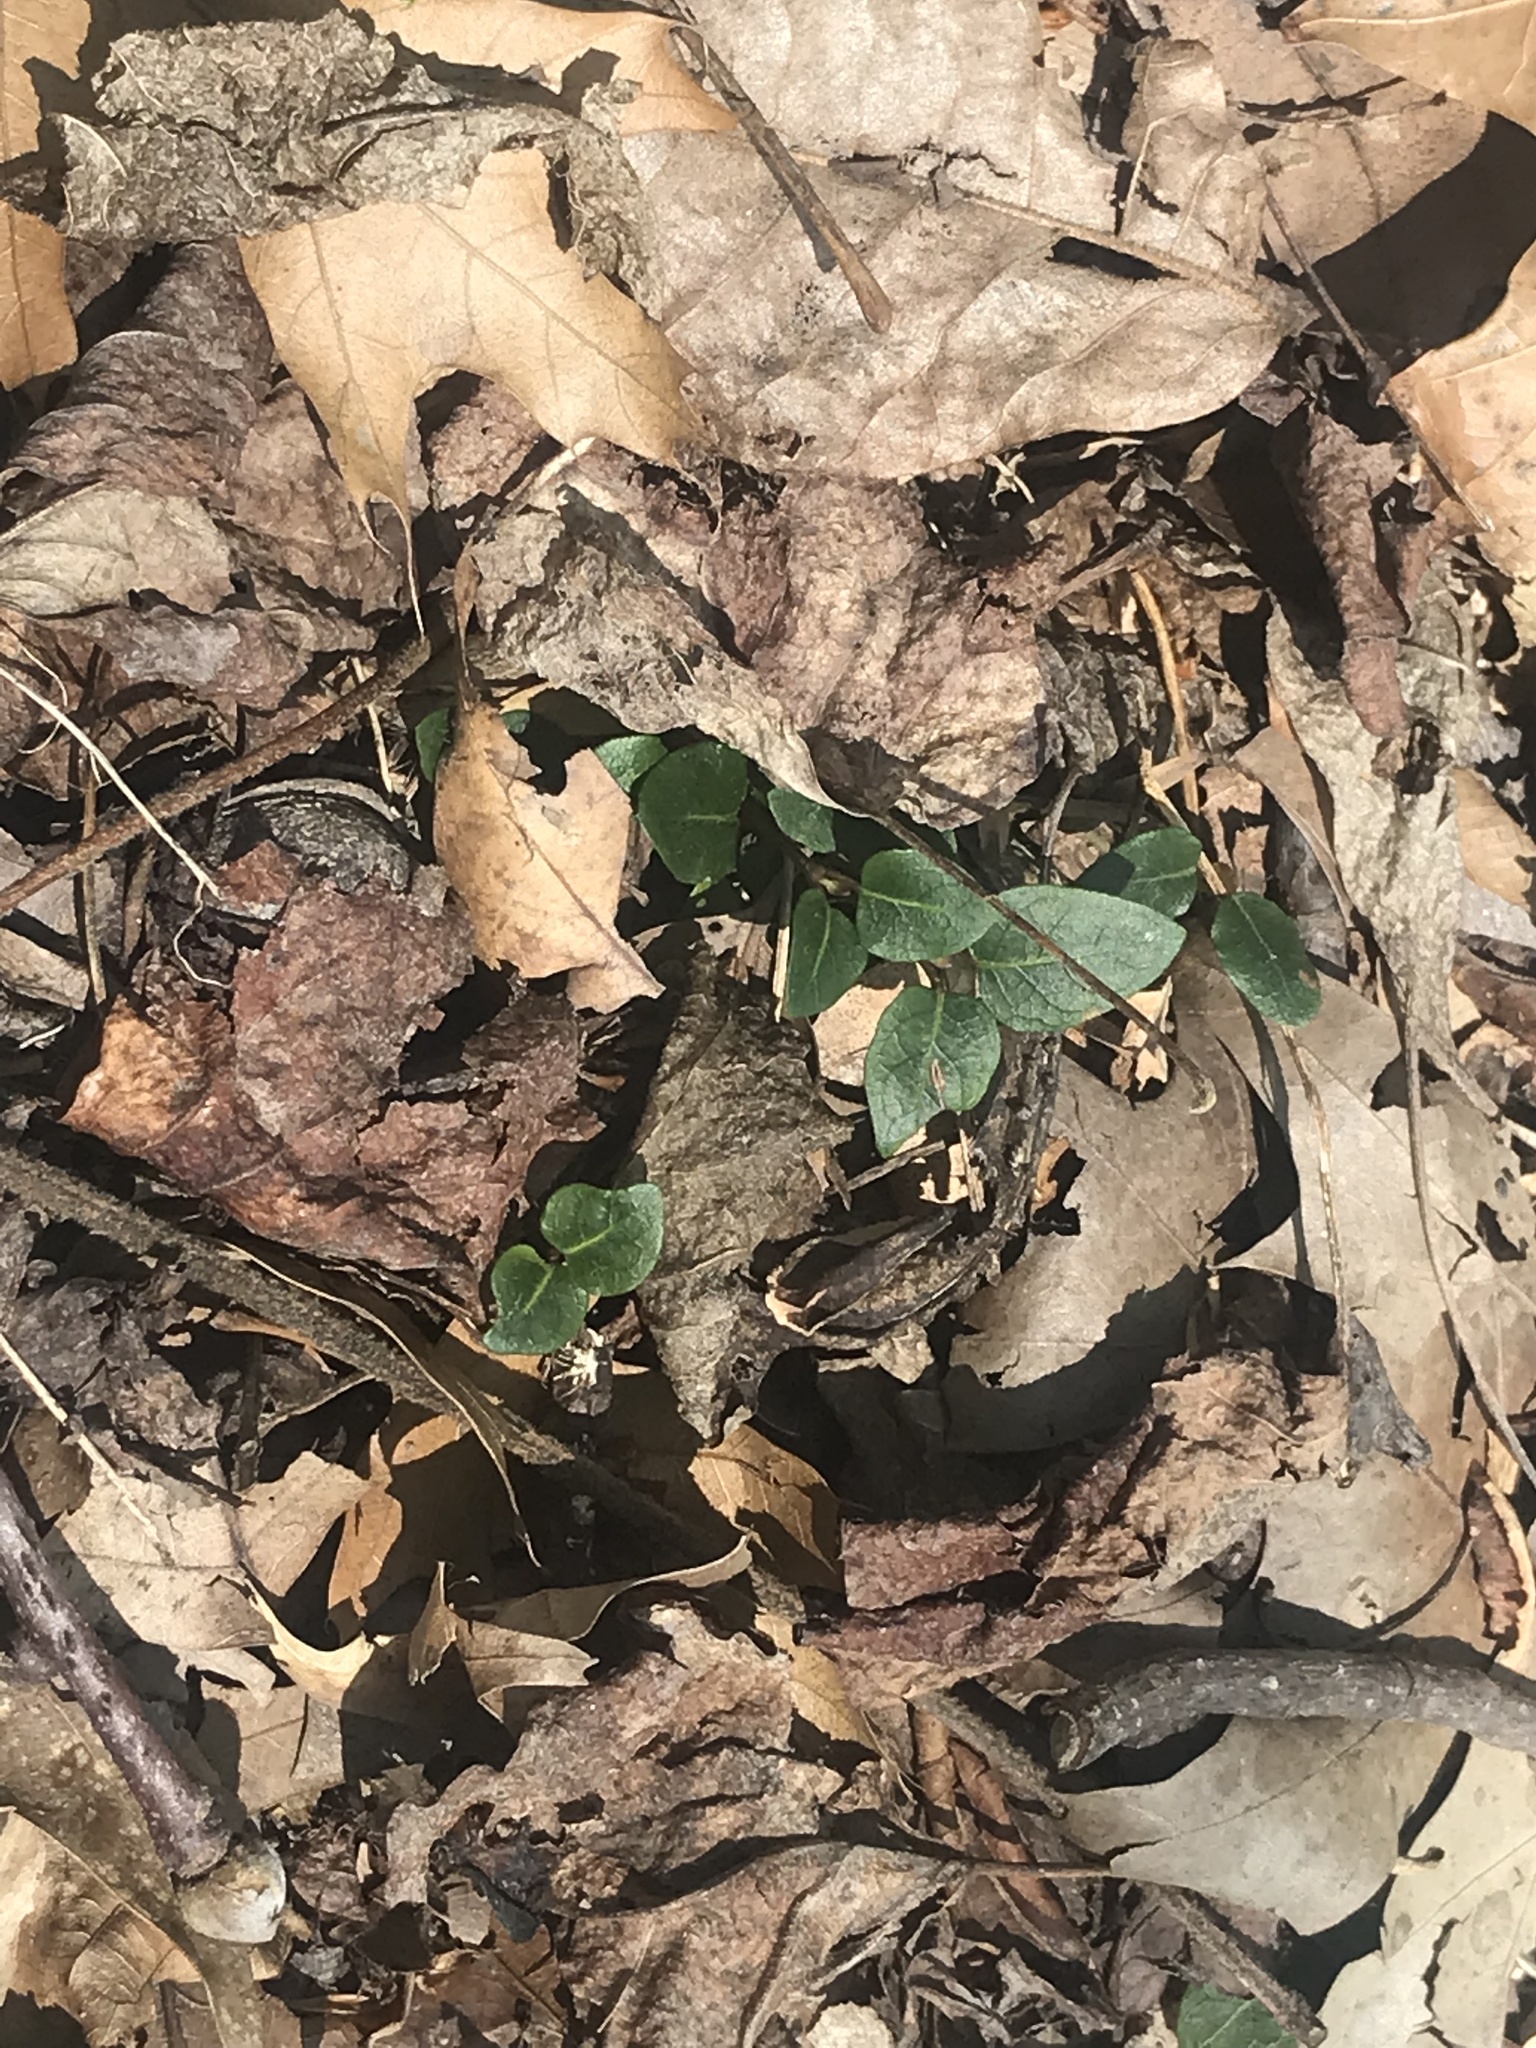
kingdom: Plantae
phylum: Tracheophyta
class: Magnoliopsida
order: Gentianales
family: Rubiaceae
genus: Mitchella
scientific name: Mitchella repens
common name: Partridge-berry
